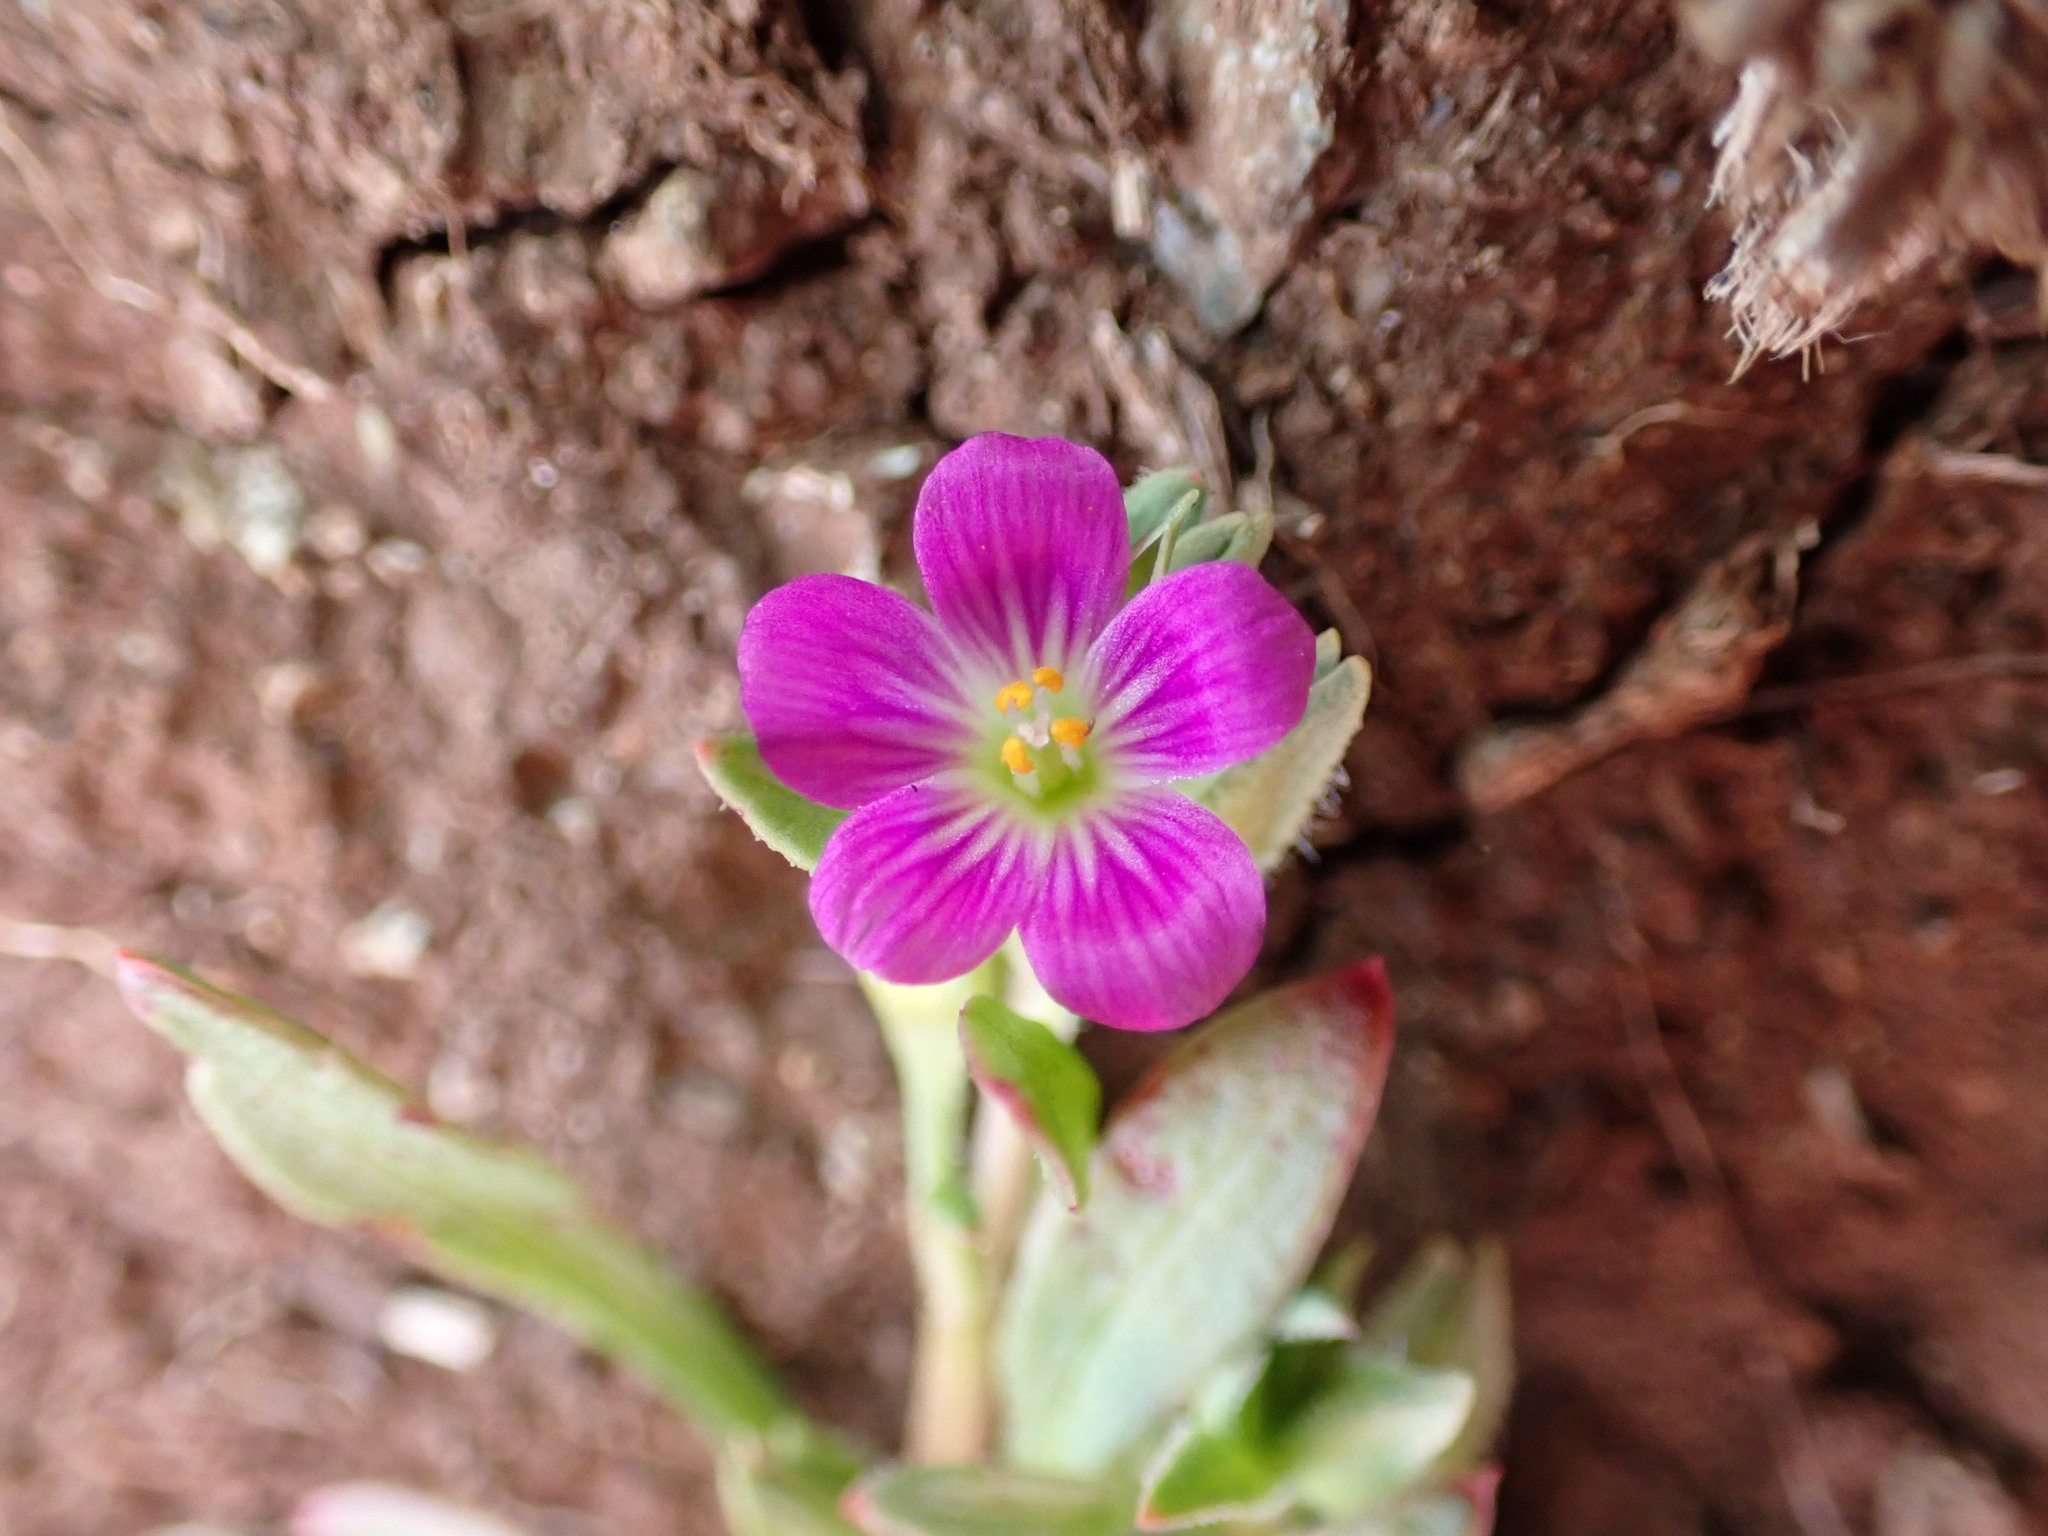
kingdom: Plantae
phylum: Tracheophyta
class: Magnoliopsida
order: Caryophyllales
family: Montiaceae
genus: Calandrinia
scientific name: Calandrinia menziesii
